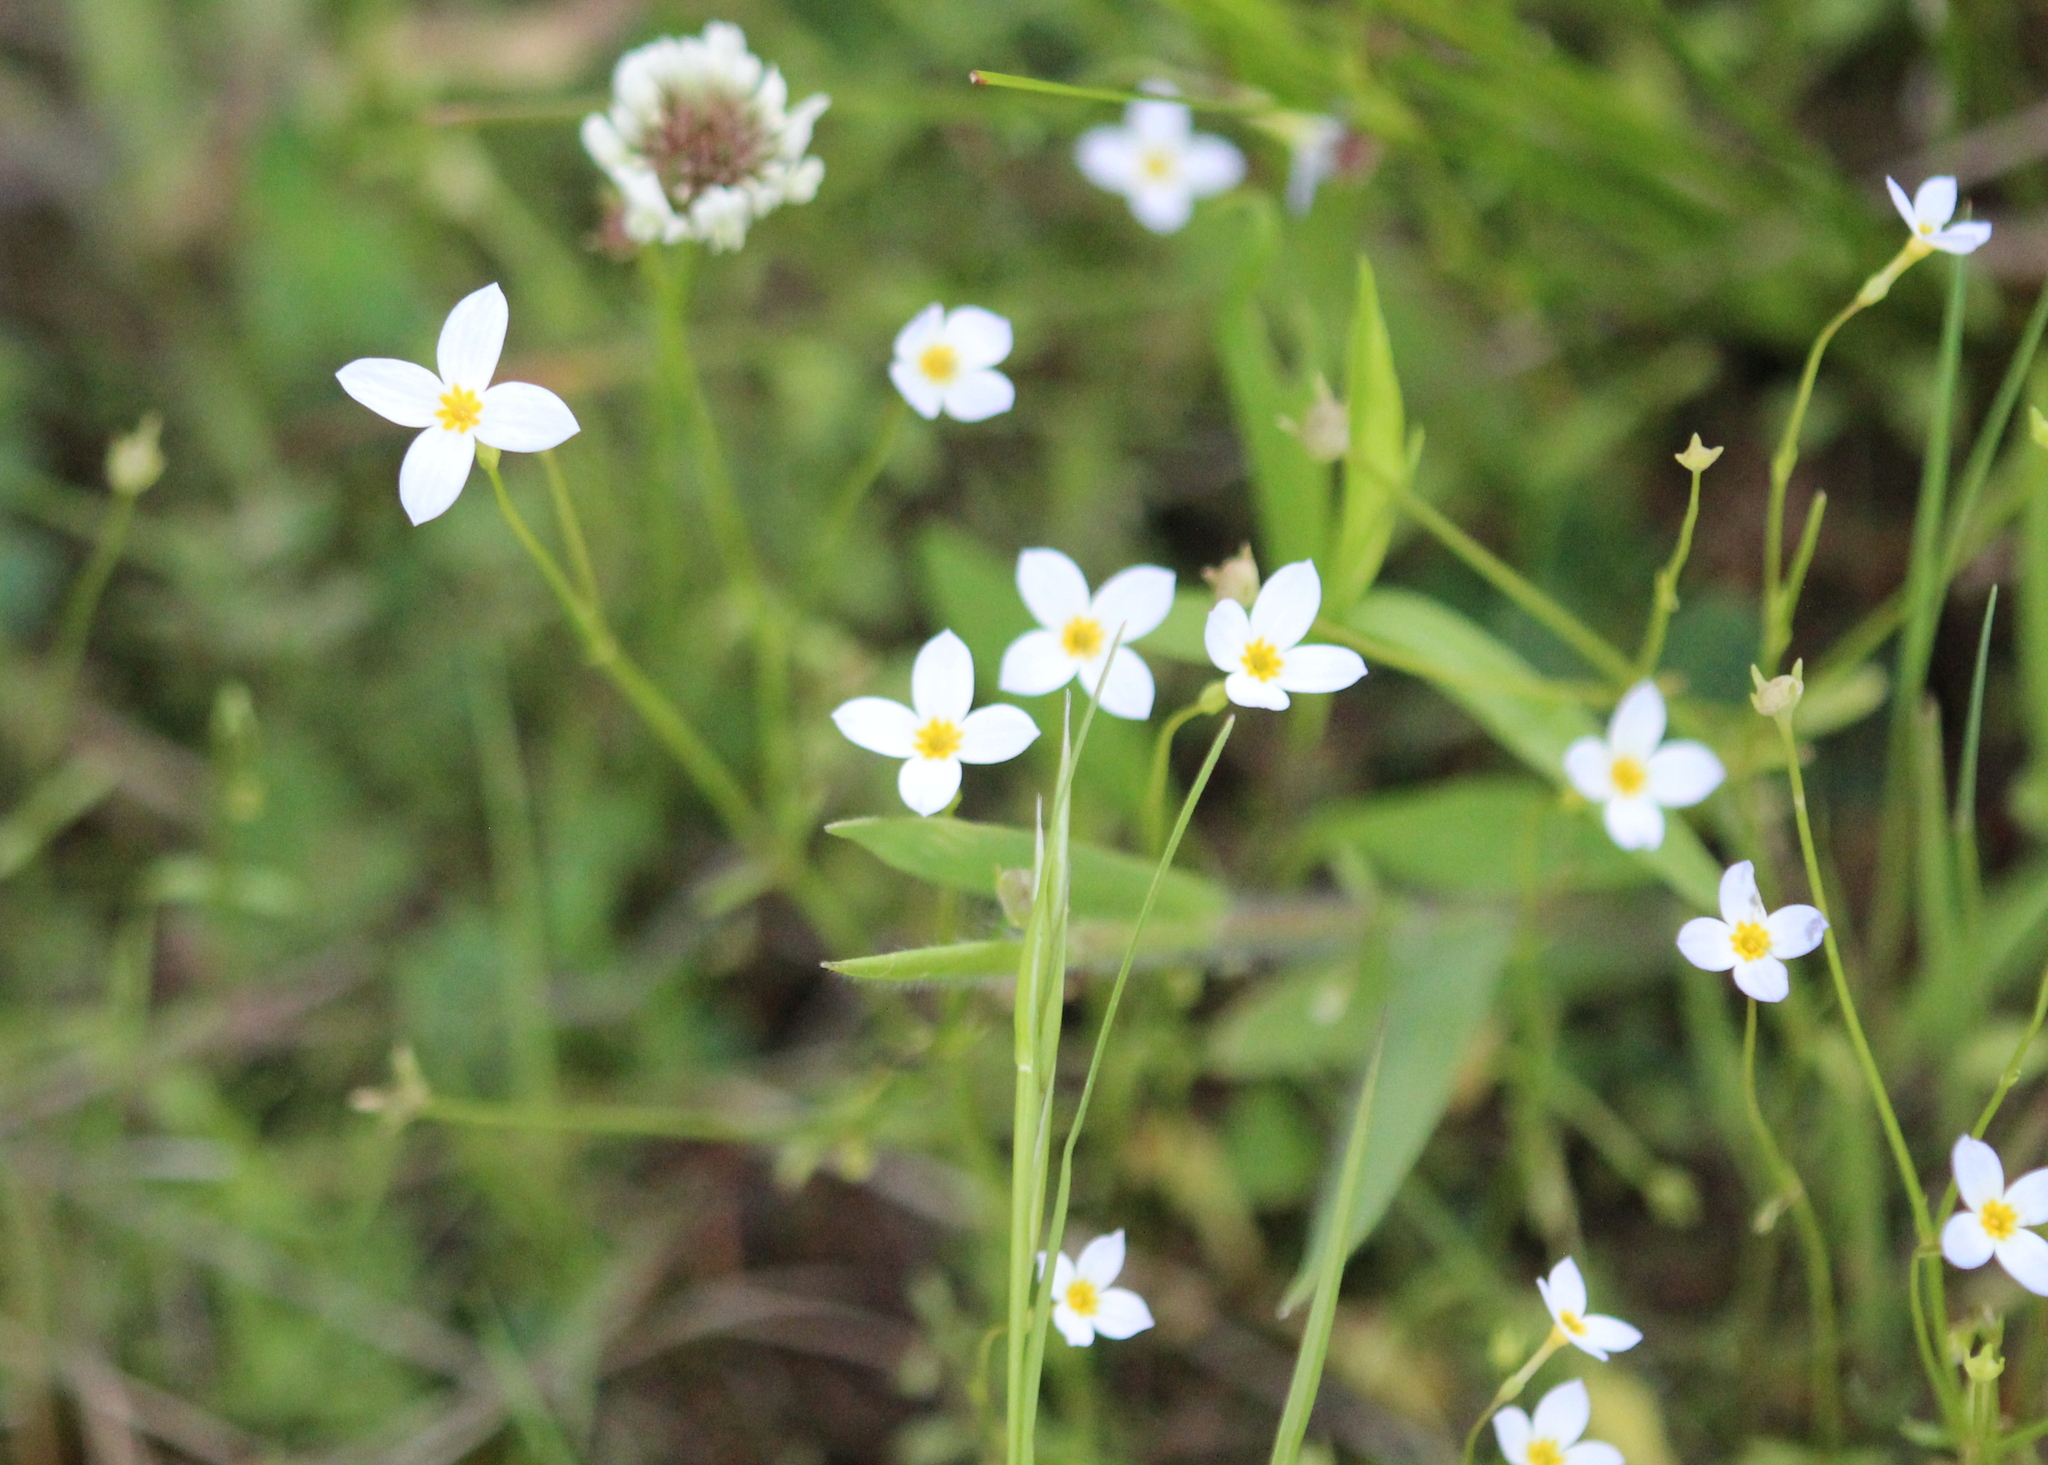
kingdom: Plantae
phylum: Tracheophyta
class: Magnoliopsida
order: Gentianales
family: Rubiaceae
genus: Houstonia
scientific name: Houstonia caerulea
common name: Bluets
